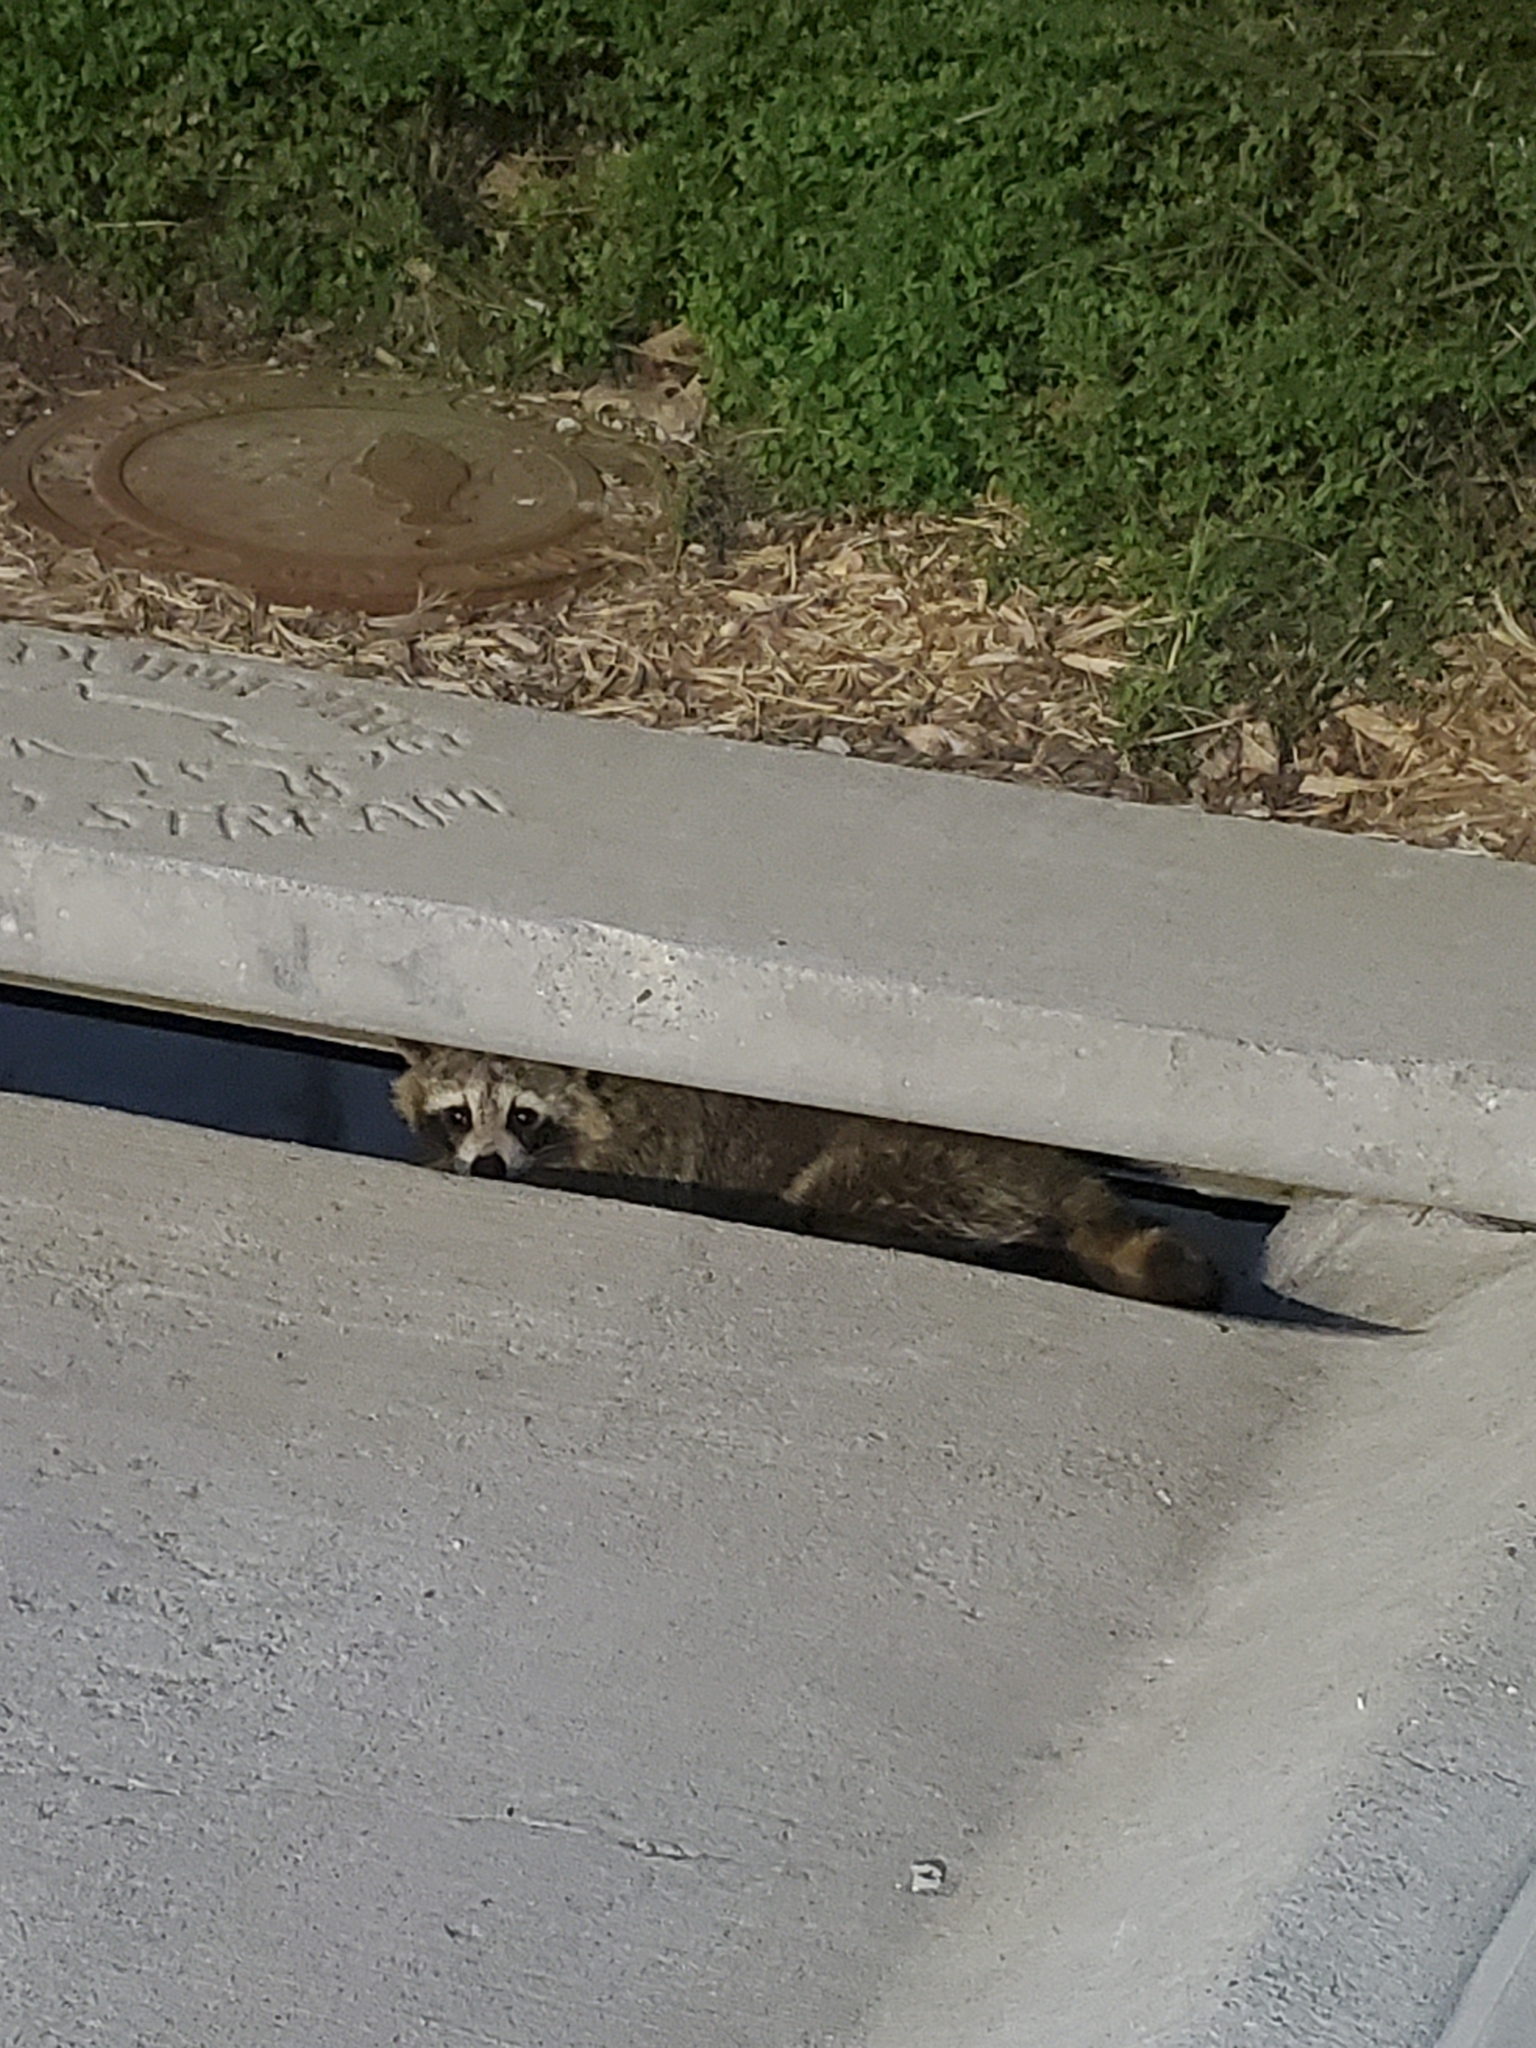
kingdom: Animalia
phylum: Chordata
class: Mammalia
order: Carnivora
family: Procyonidae
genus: Procyon
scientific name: Procyon lotor
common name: Raccoon
